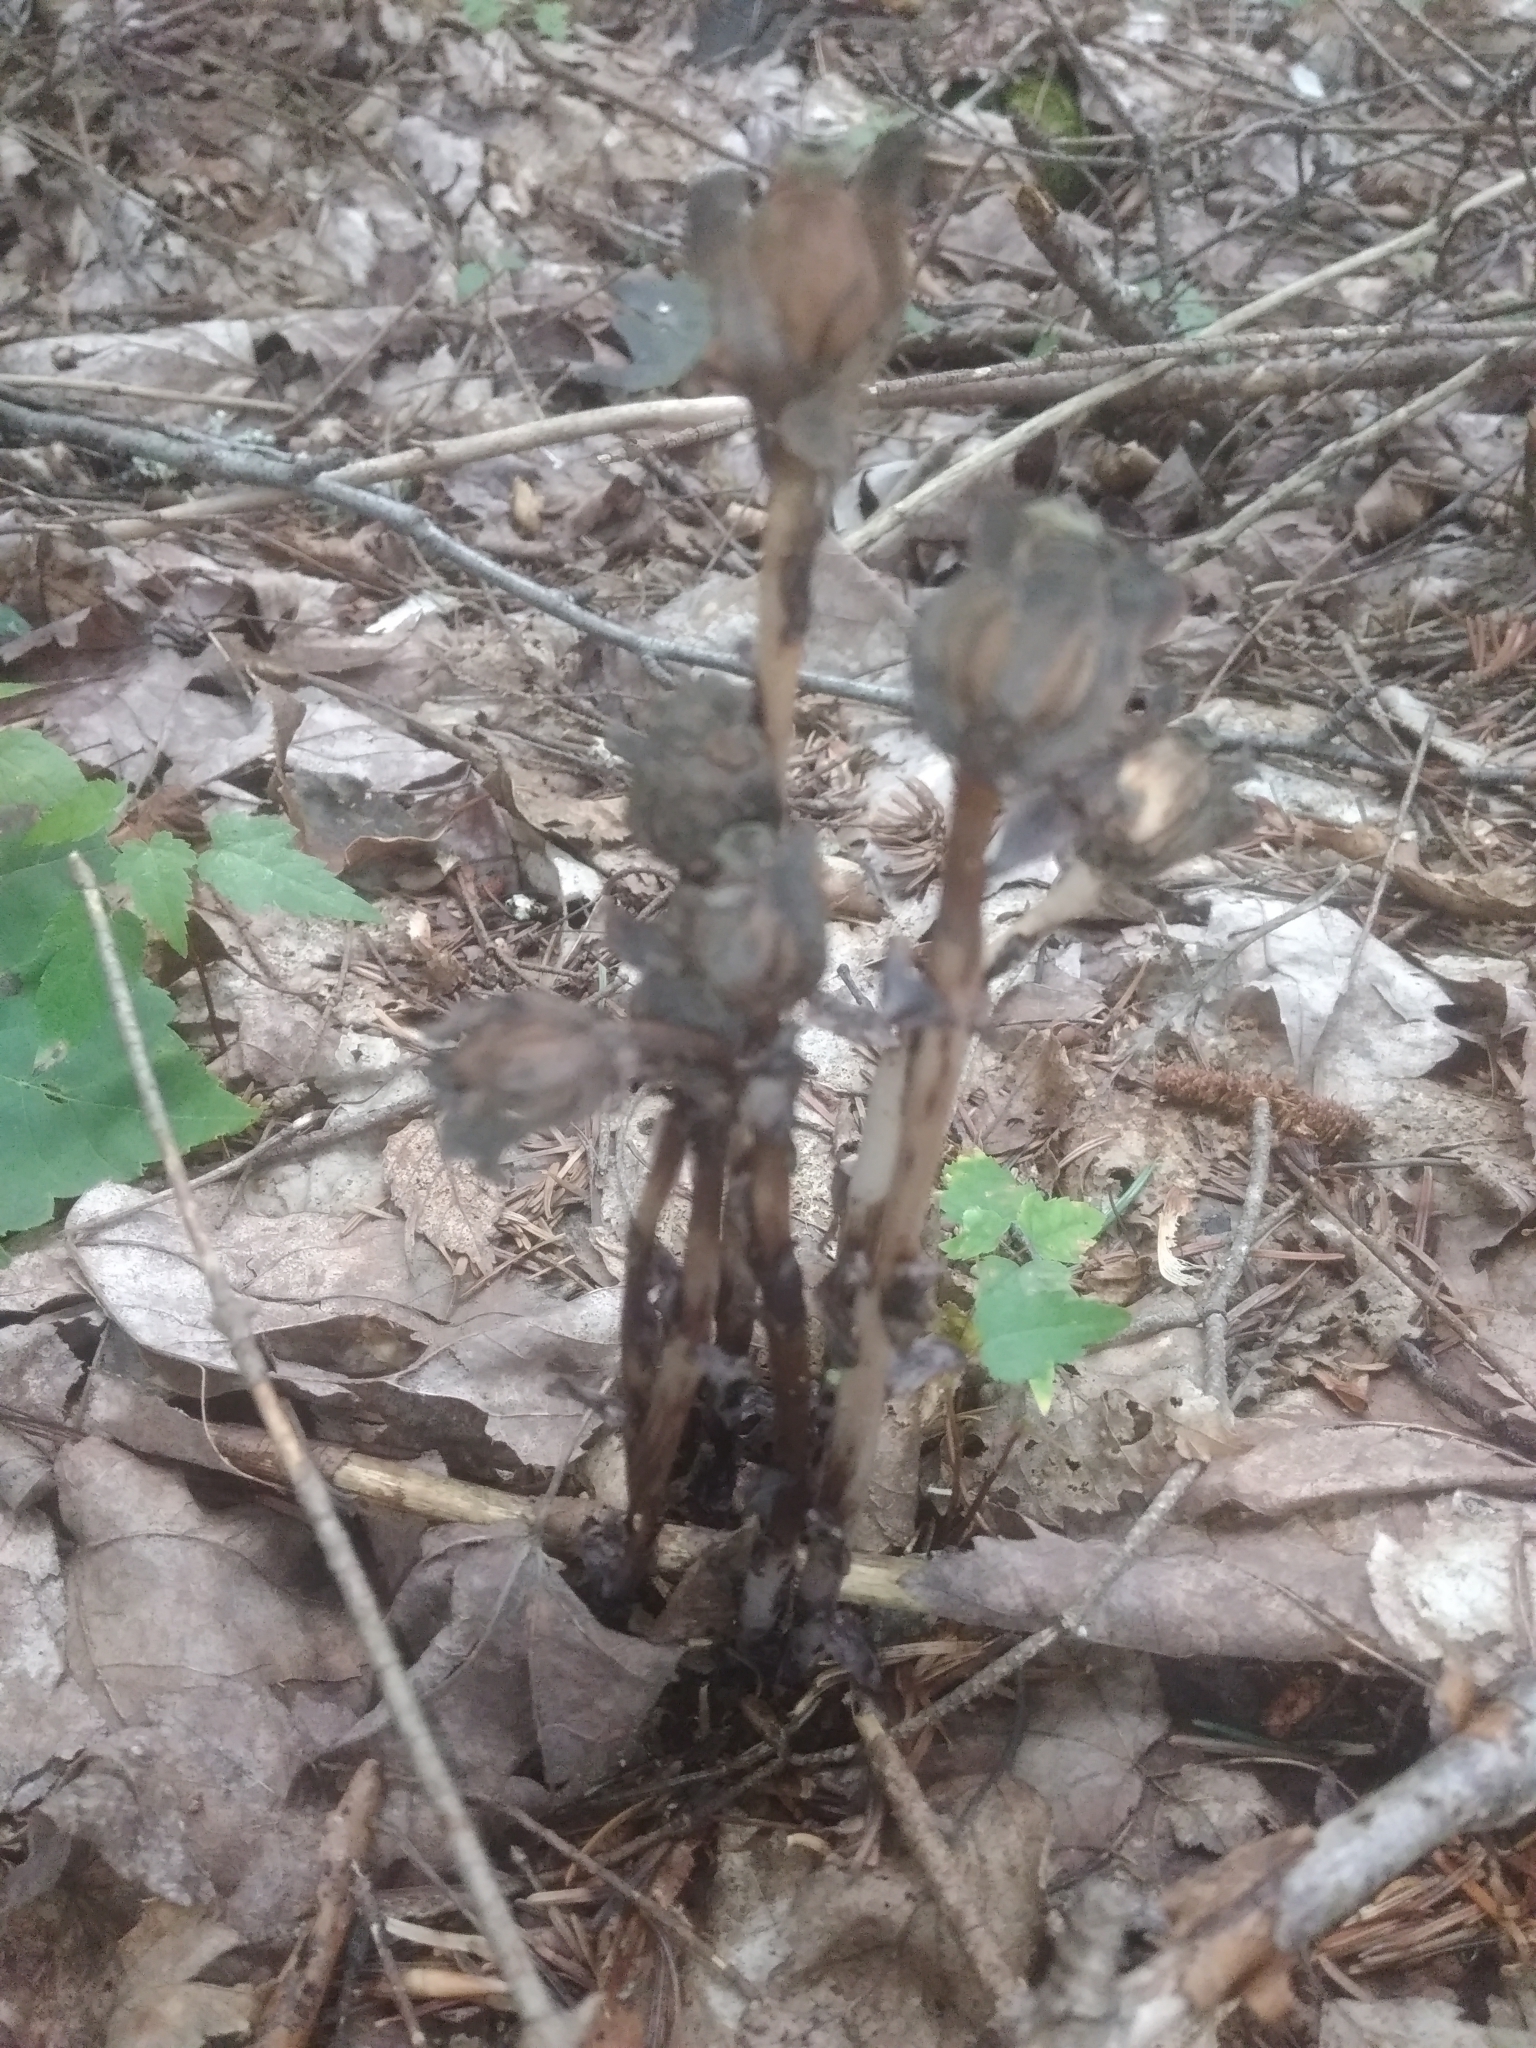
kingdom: Plantae
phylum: Tracheophyta
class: Magnoliopsida
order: Ericales
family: Ericaceae
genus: Monotropa
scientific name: Monotropa uniflora
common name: Convulsion root
